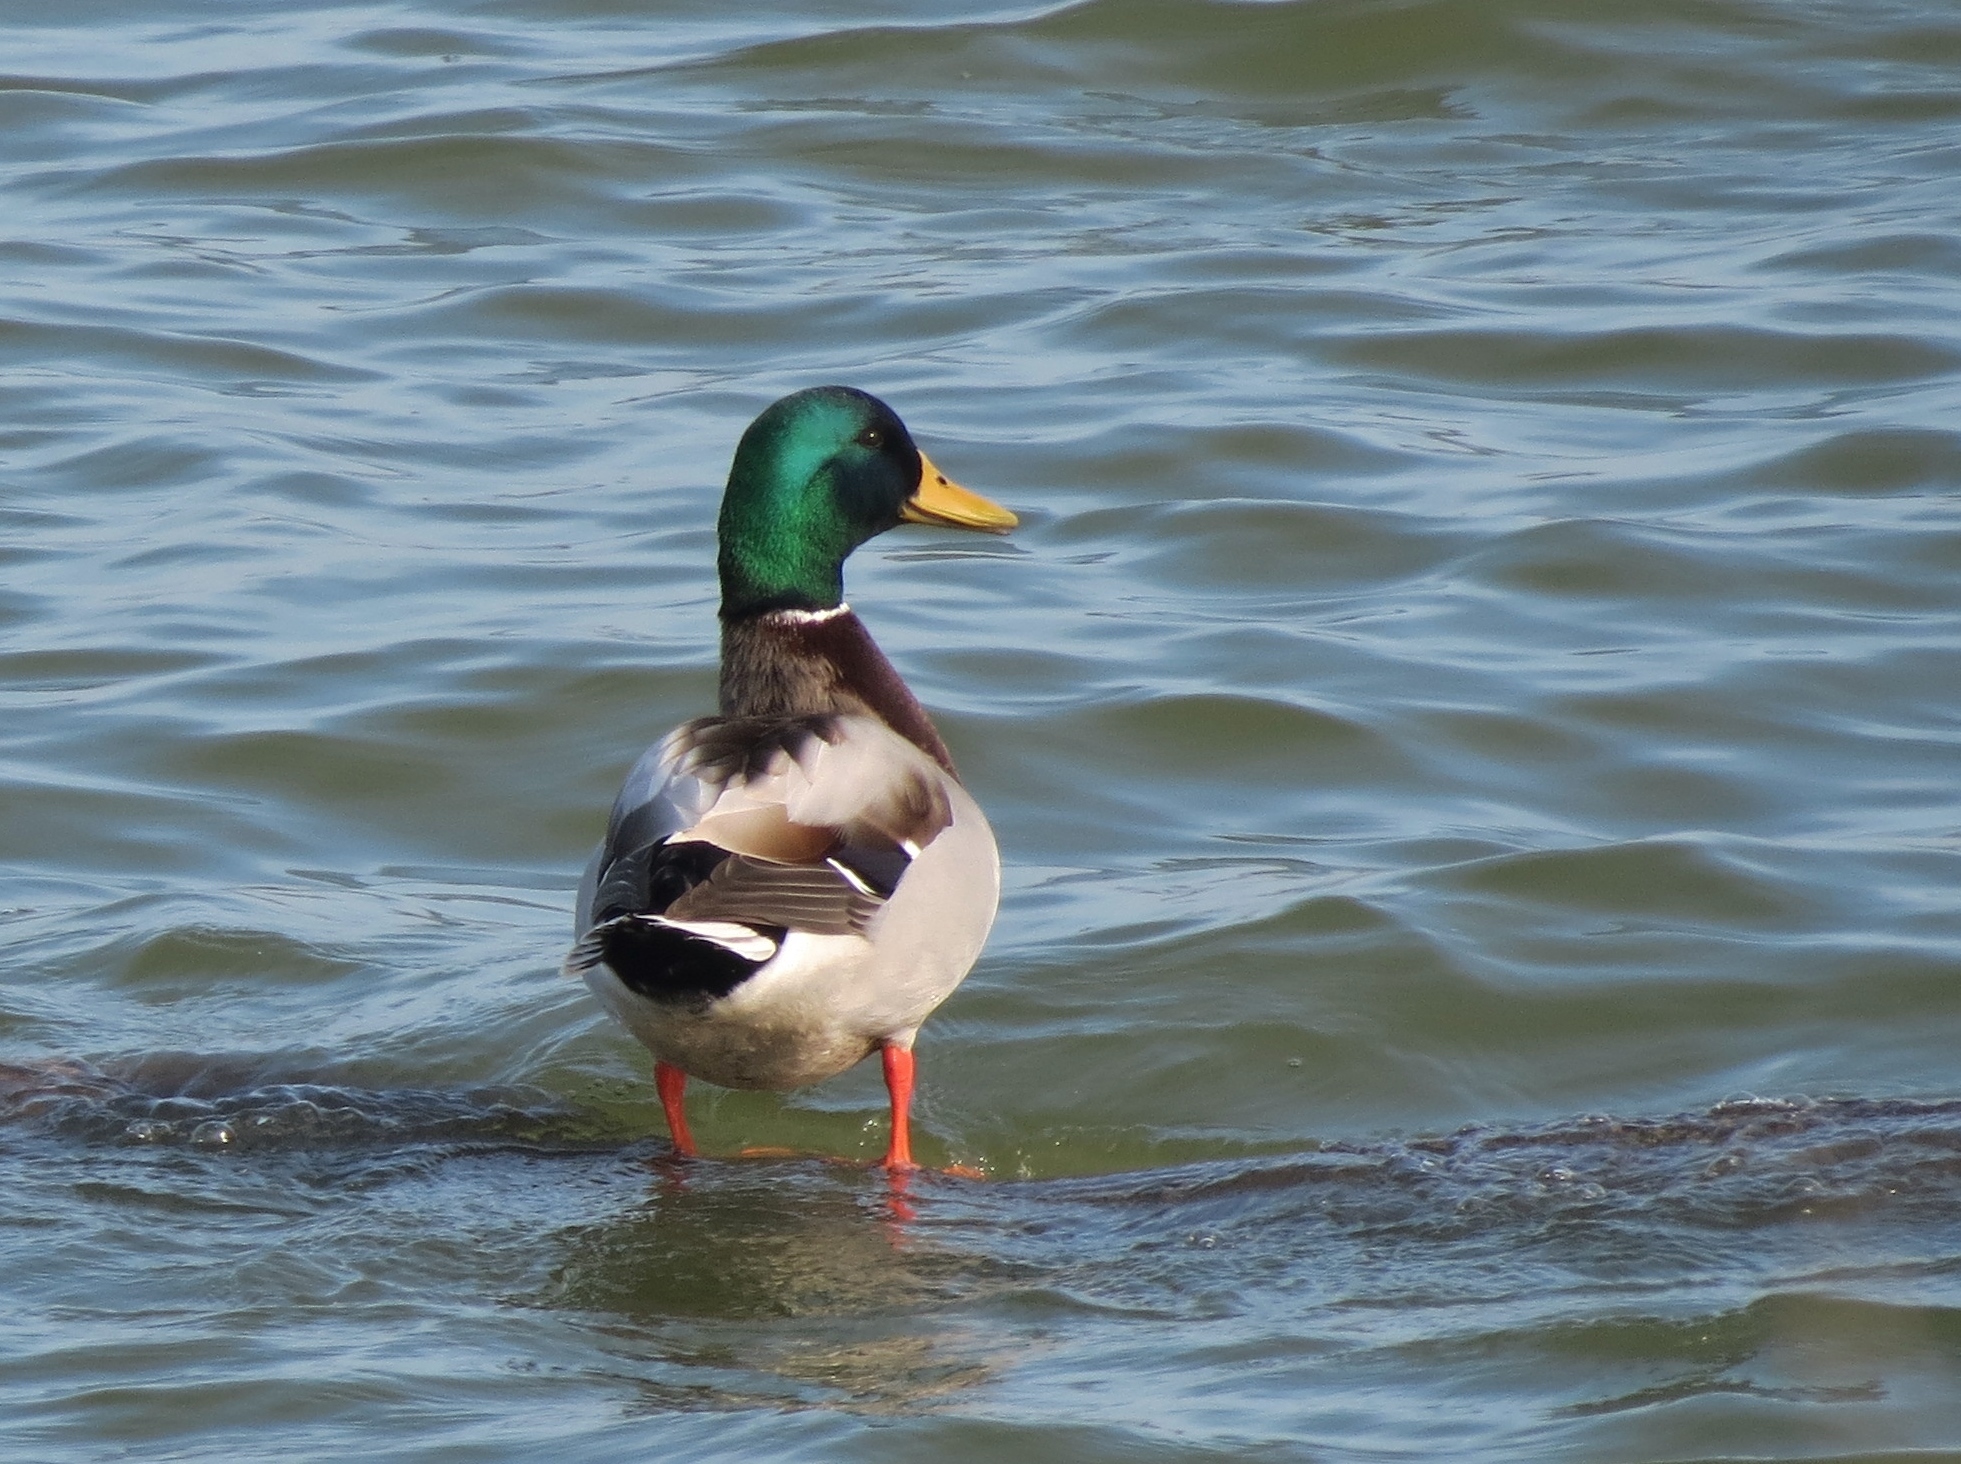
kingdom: Animalia
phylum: Chordata
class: Aves
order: Anseriformes
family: Anatidae
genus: Anas
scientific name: Anas platyrhynchos
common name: Mallard
